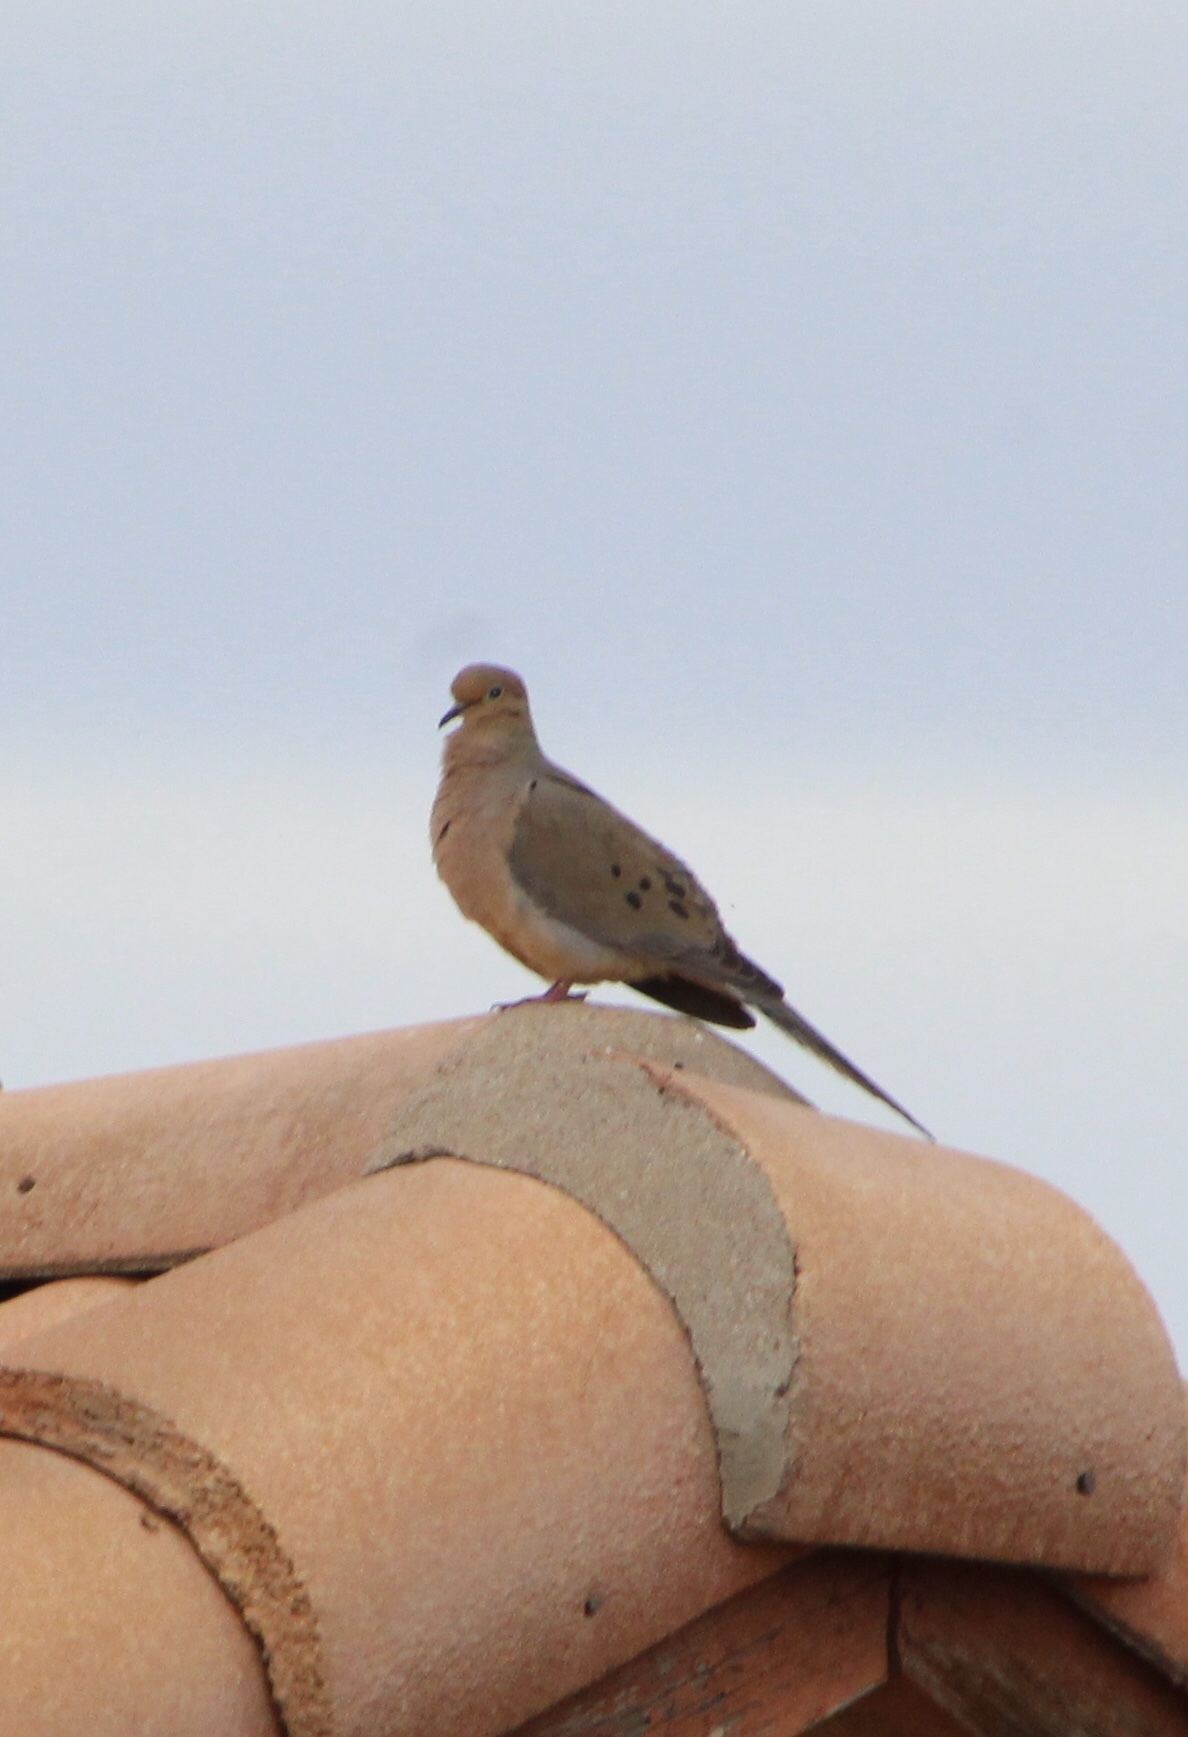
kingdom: Animalia
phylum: Chordata
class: Aves
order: Columbiformes
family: Columbidae
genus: Zenaida
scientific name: Zenaida macroura
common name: Mourning dove
